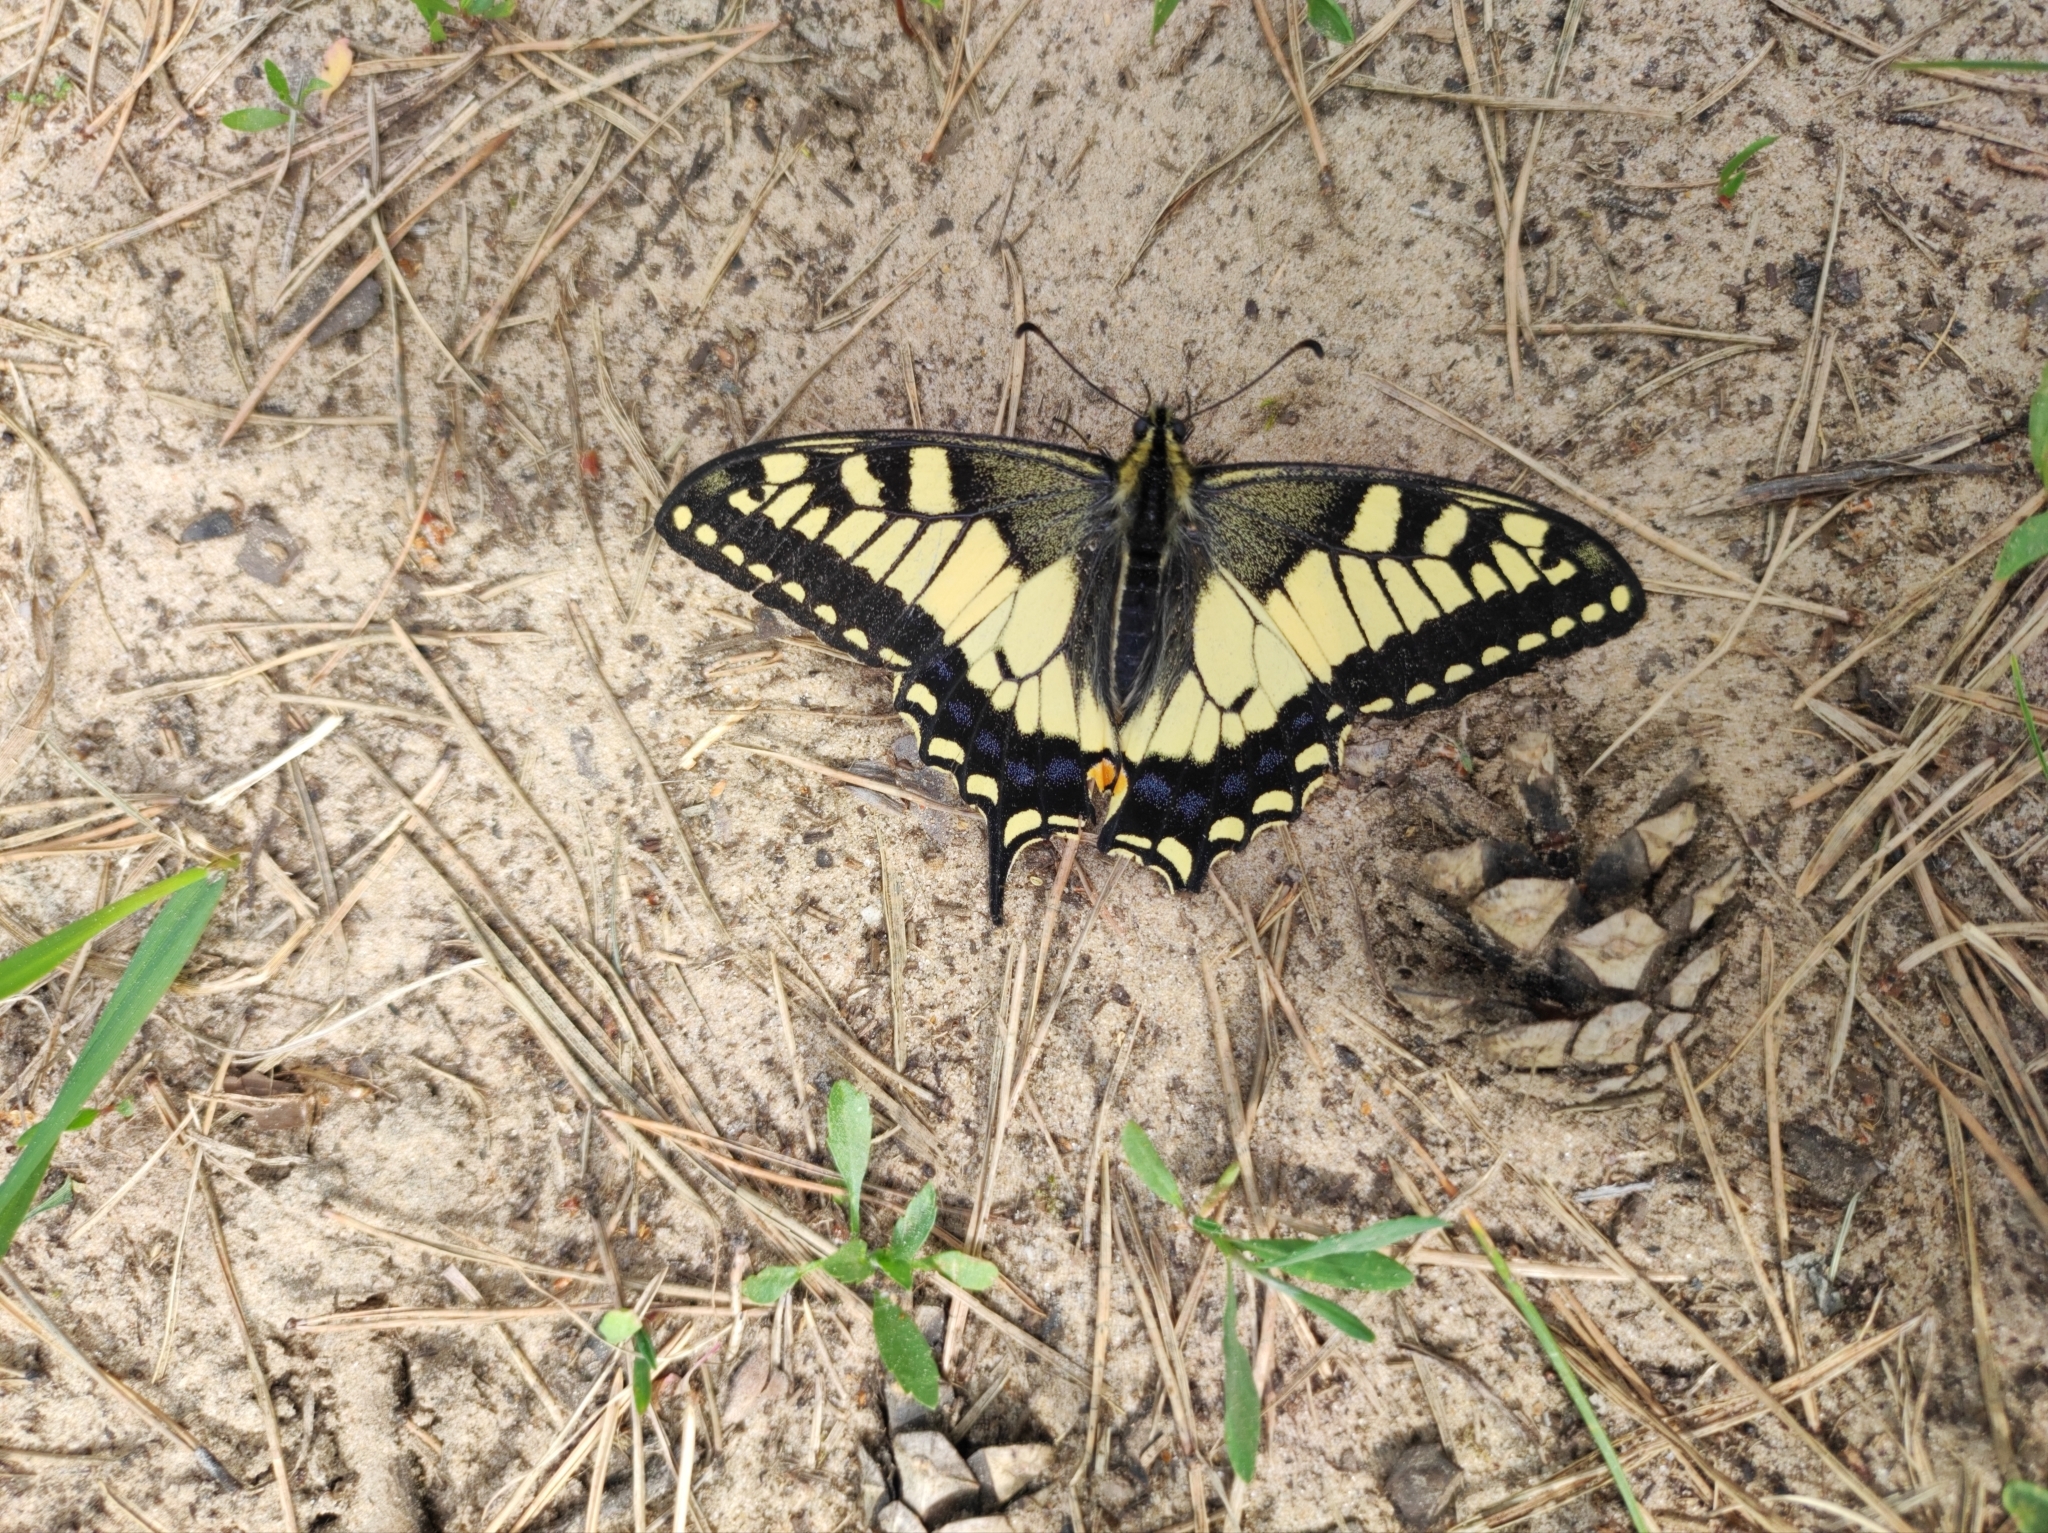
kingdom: Animalia
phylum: Arthropoda
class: Insecta
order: Lepidoptera
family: Papilionidae
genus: Papilio
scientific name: Papilio machaon
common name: Swallowtail
